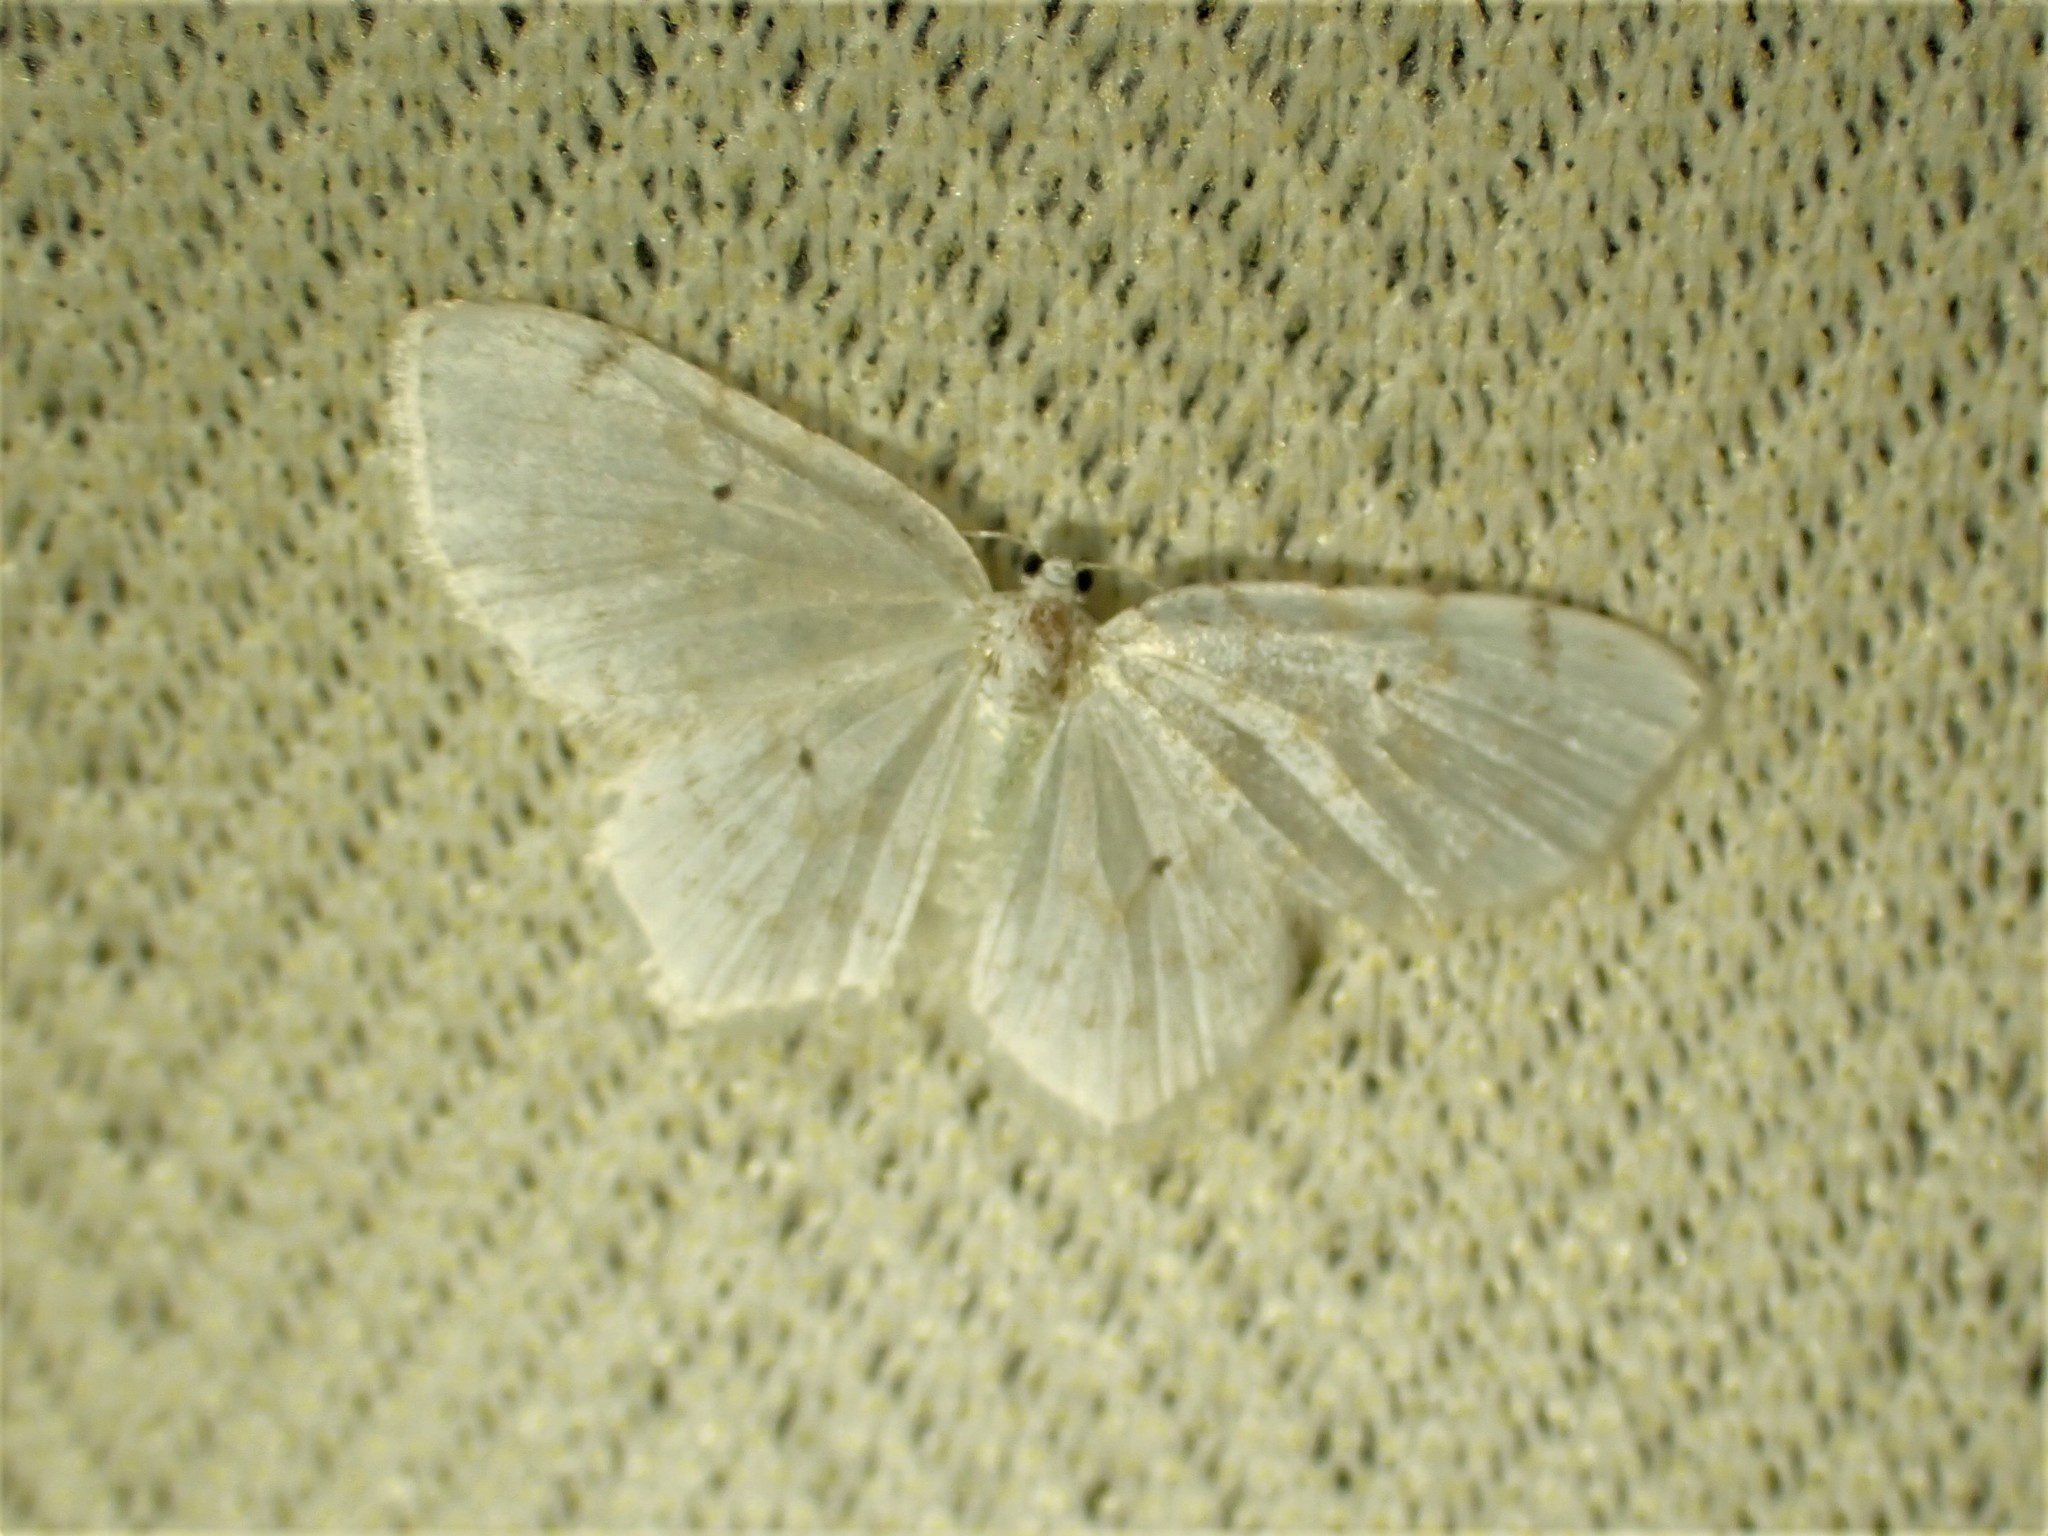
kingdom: Animalia
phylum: Arthropoda
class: Insecta
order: Lepidoptera
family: Geometridae
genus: Hydrelia
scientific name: Hydrelia albifera
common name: Fragile white carpet
